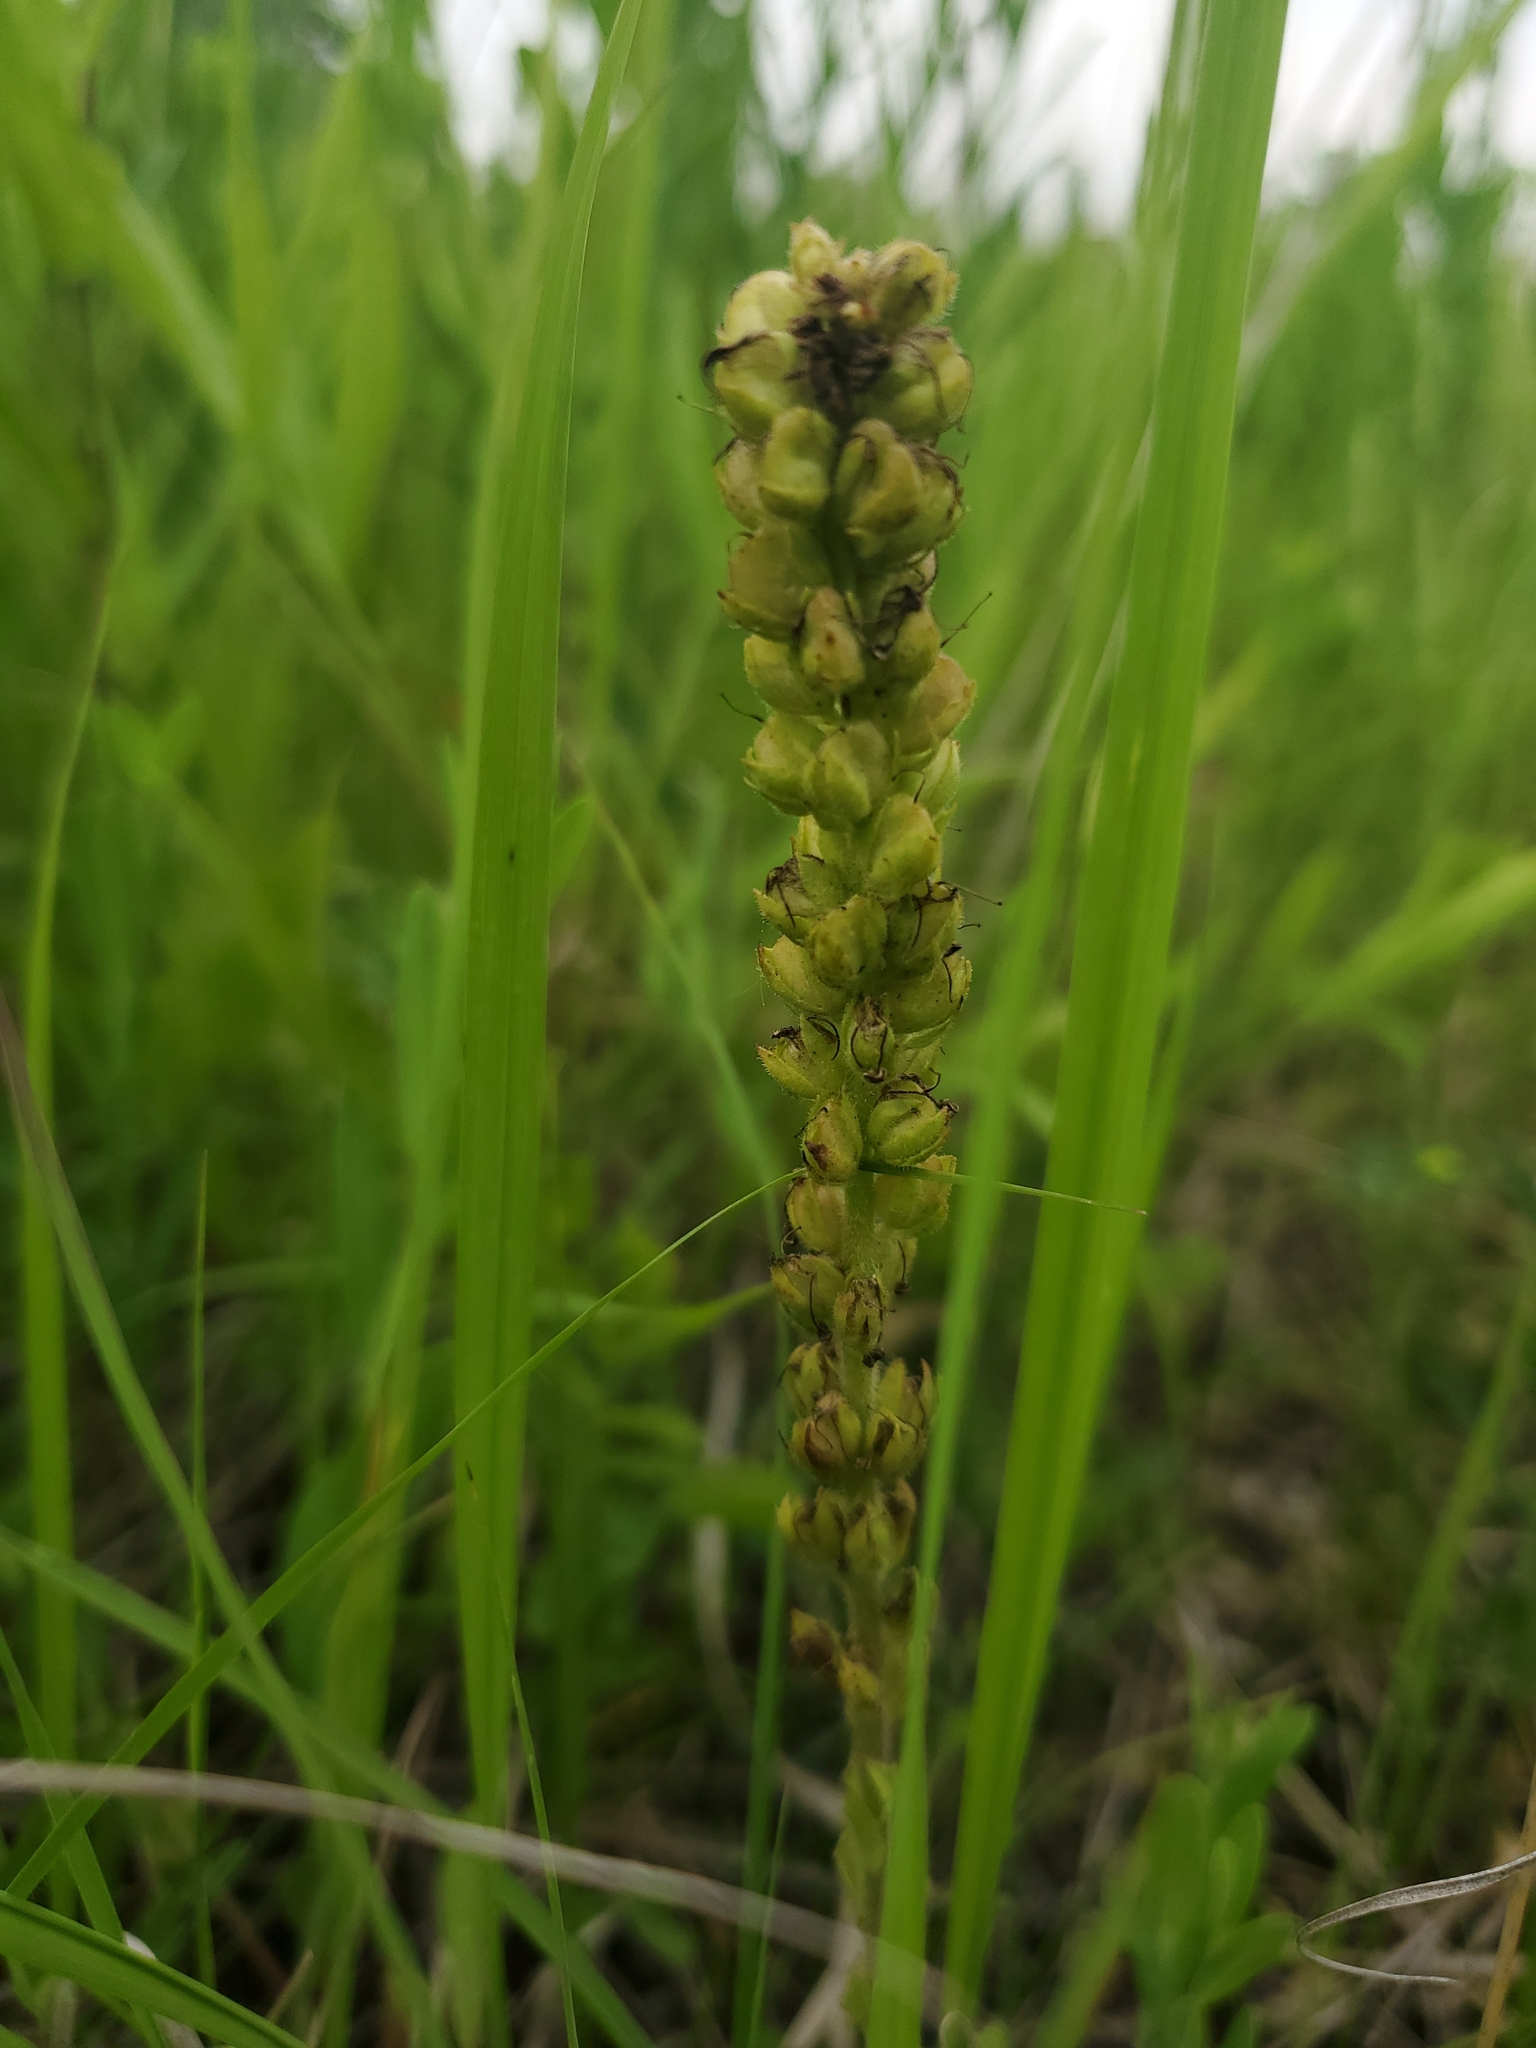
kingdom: Plantae
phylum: Tracheophyta
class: Magnoliopsida
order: Lamiales
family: Plantaginaceae
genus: Synthyris
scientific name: Synthyris bullii
